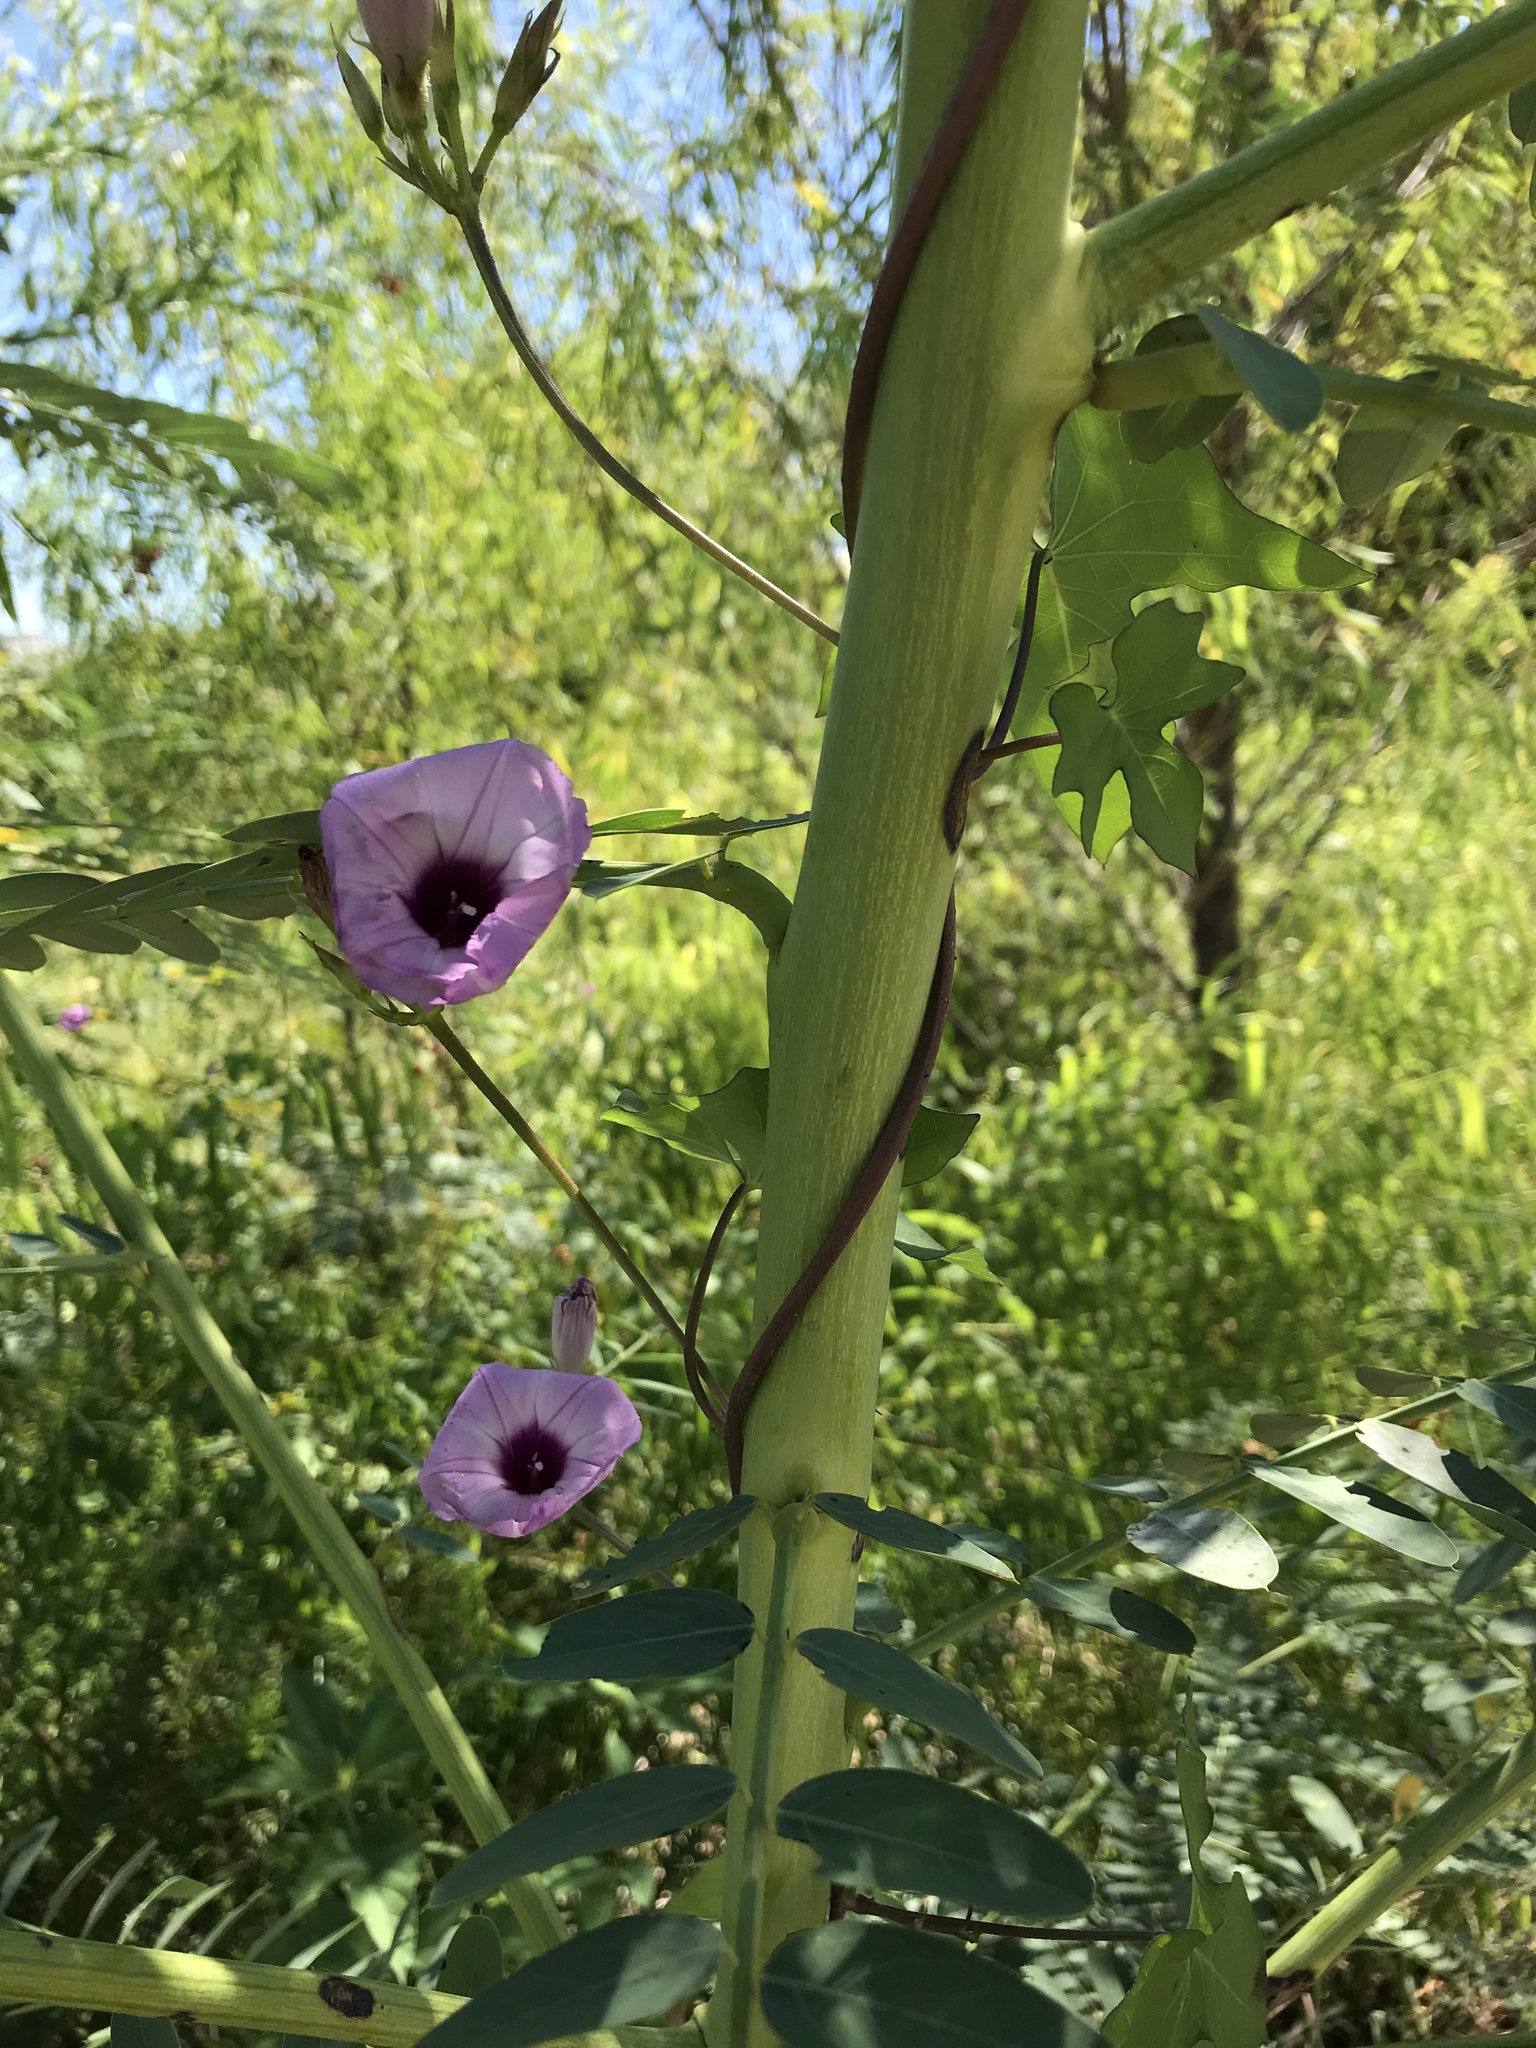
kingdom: Plantae
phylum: Tracheophyta
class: Magnoliopsida
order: Solanales
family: Convolvulaceae
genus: Ipomoea
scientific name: Ipomoea cordatotriloba
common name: Cotton morning glory
